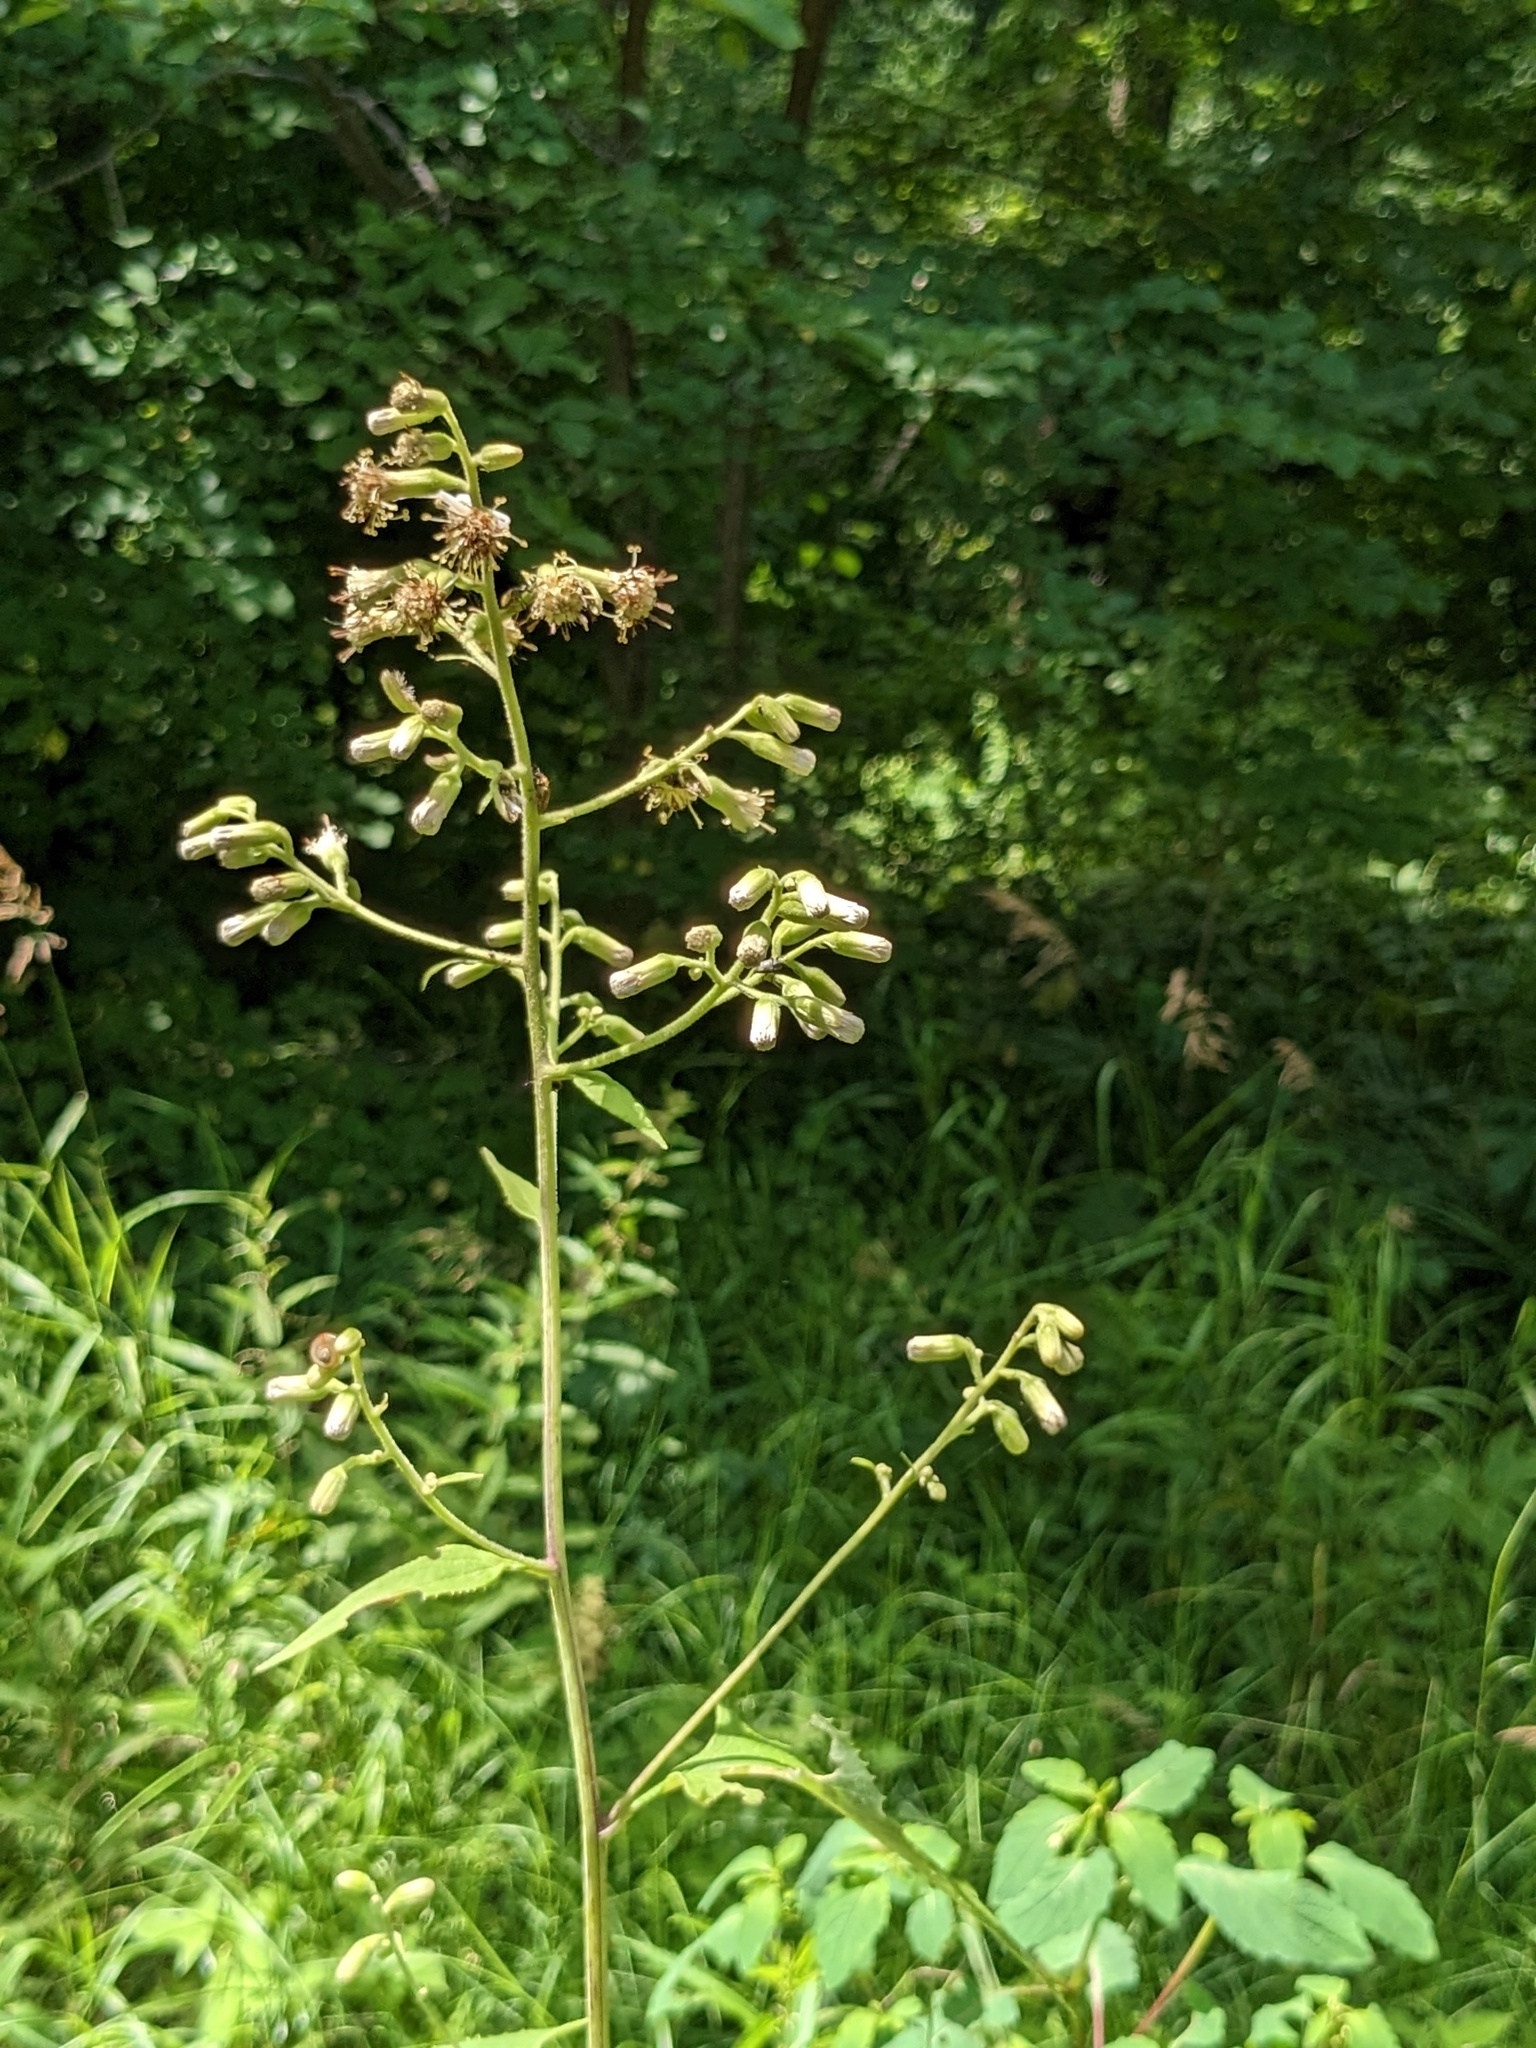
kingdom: Plantae
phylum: Tracheophyta
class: Magnoliopsida
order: Asterales
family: Asteraceae
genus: Parasenecio
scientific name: Parasenecio hastatus
